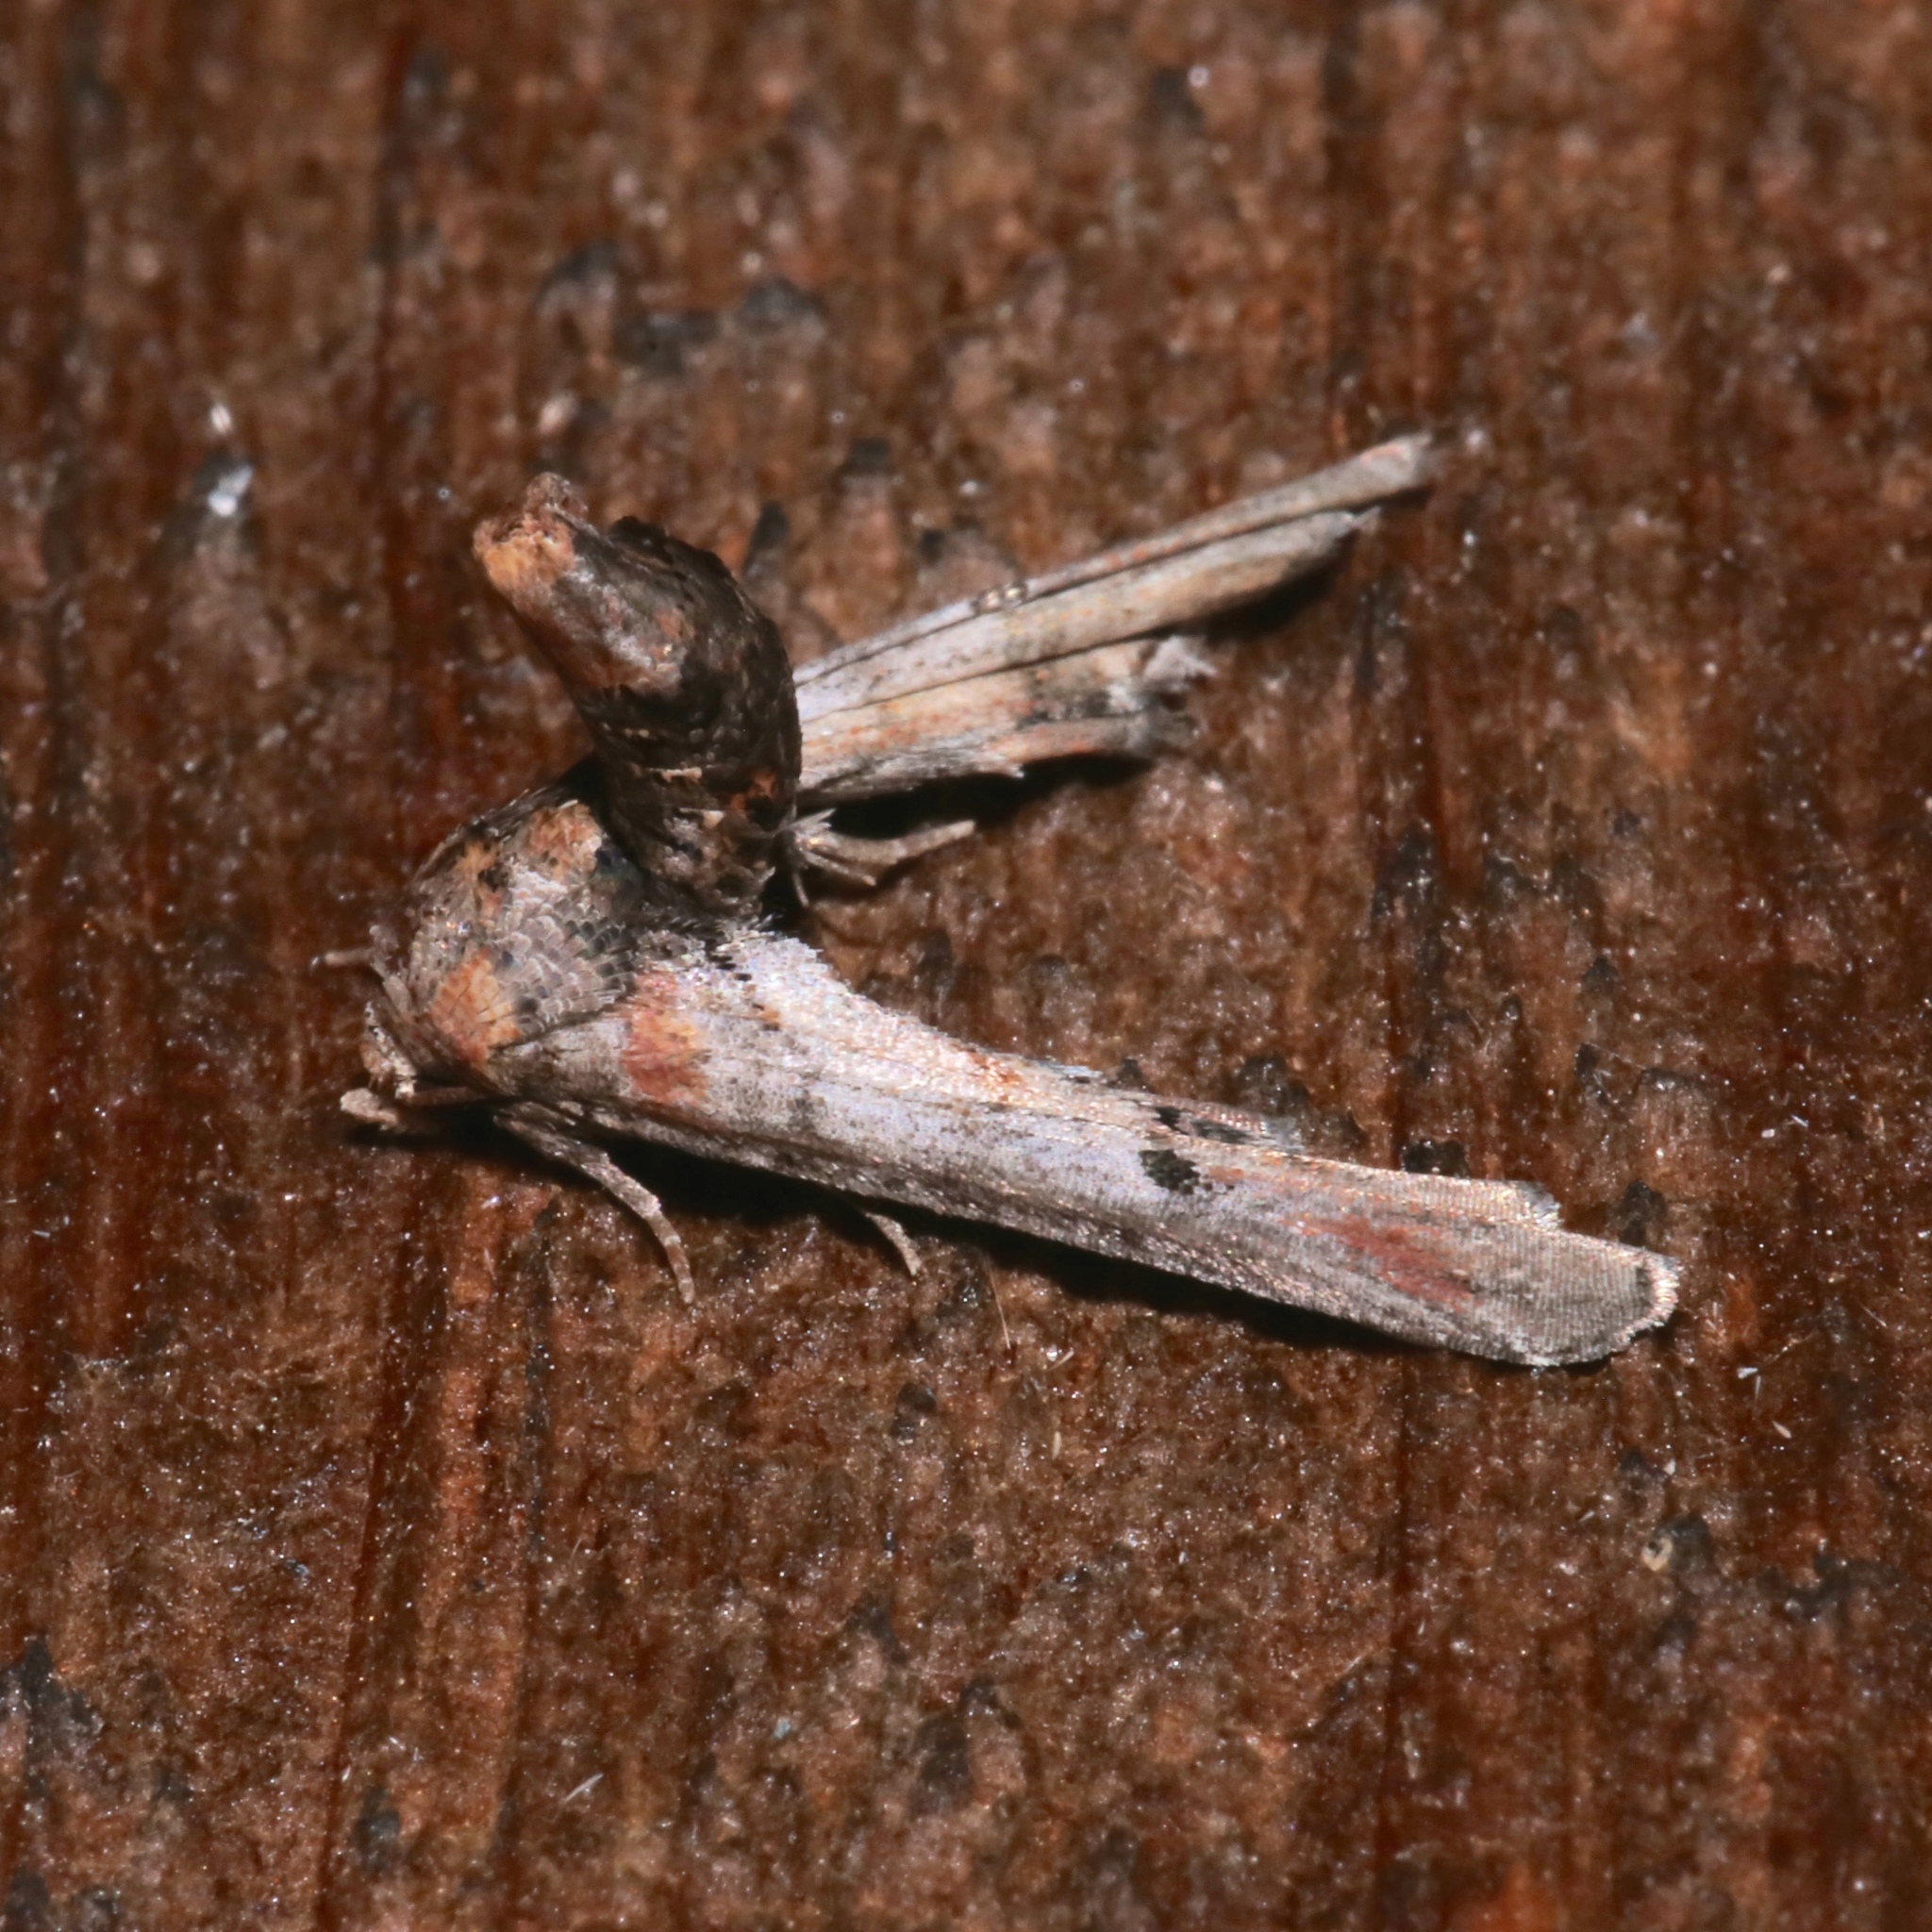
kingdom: Animalia
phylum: Arthropoda
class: Insecta
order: Lepidoptera
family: Euteliidae
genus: Marathyssa
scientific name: Marathyssa inficita
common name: Dark marathyssa moth
